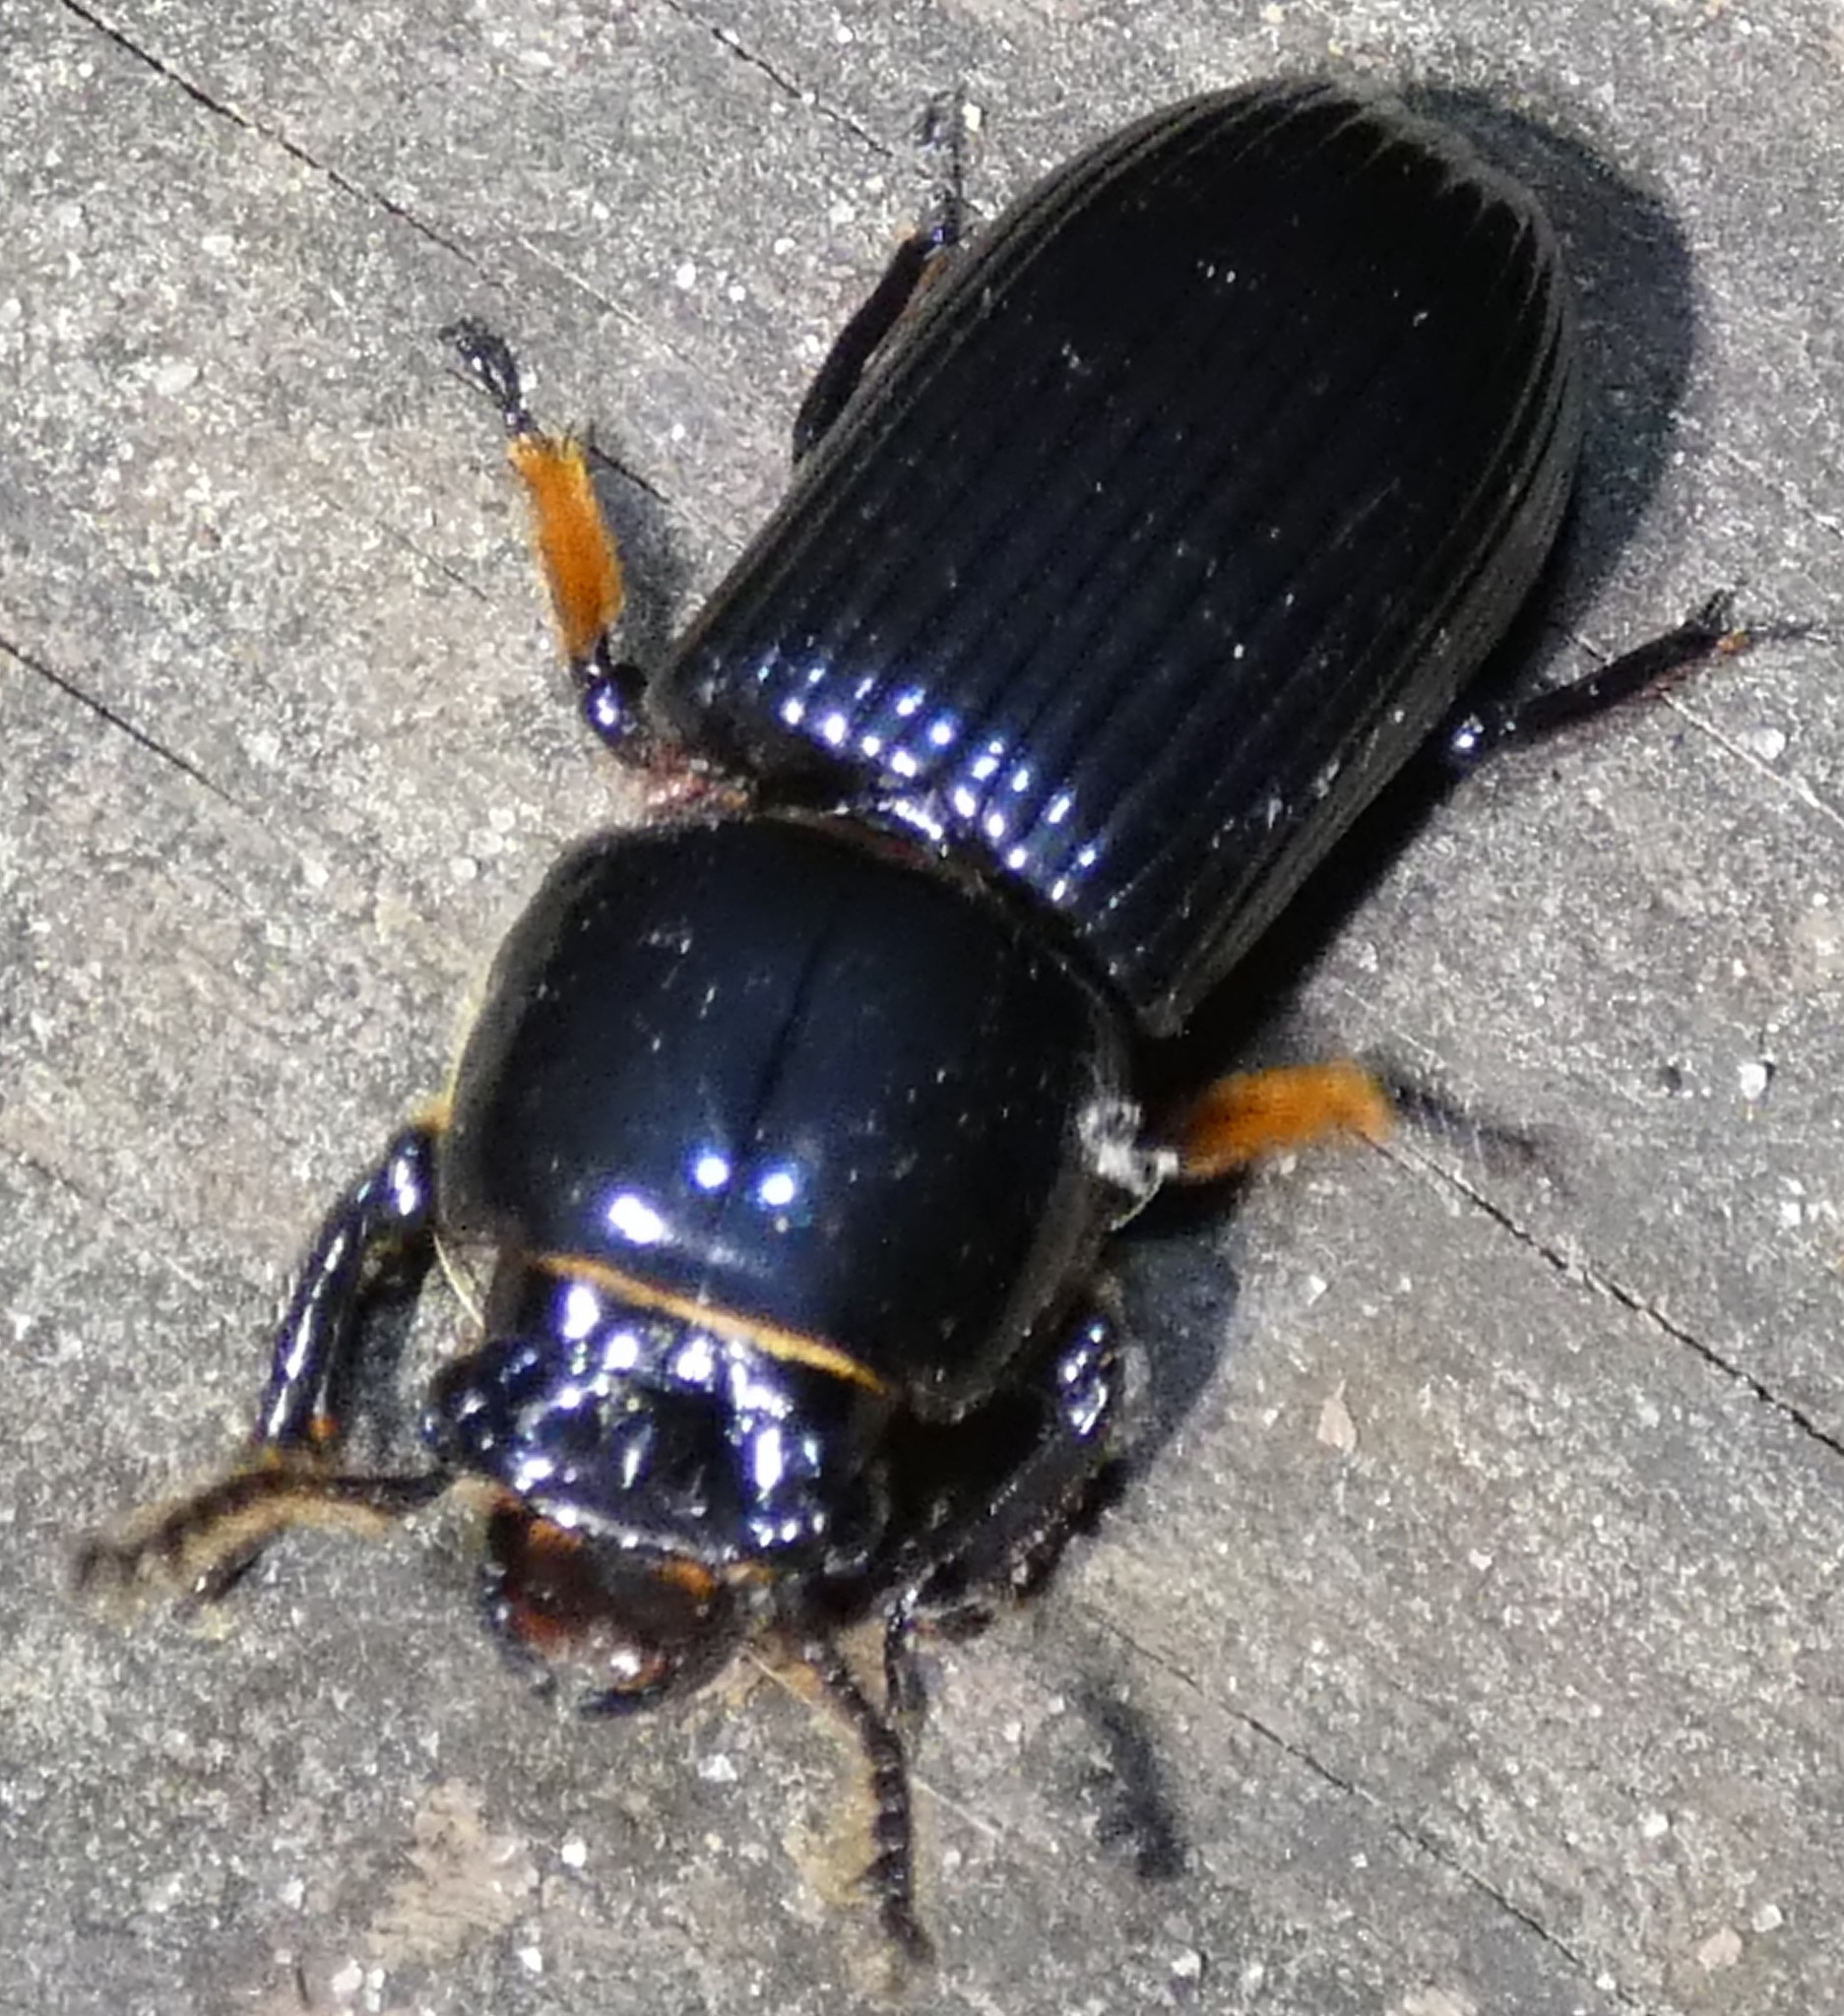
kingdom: Animalia
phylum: Arthropoda
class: Insecta
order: Coleoptera
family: Passalidae
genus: Odontotaenius
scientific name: Odontotaenius disjunctus
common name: Patent leather beetle
